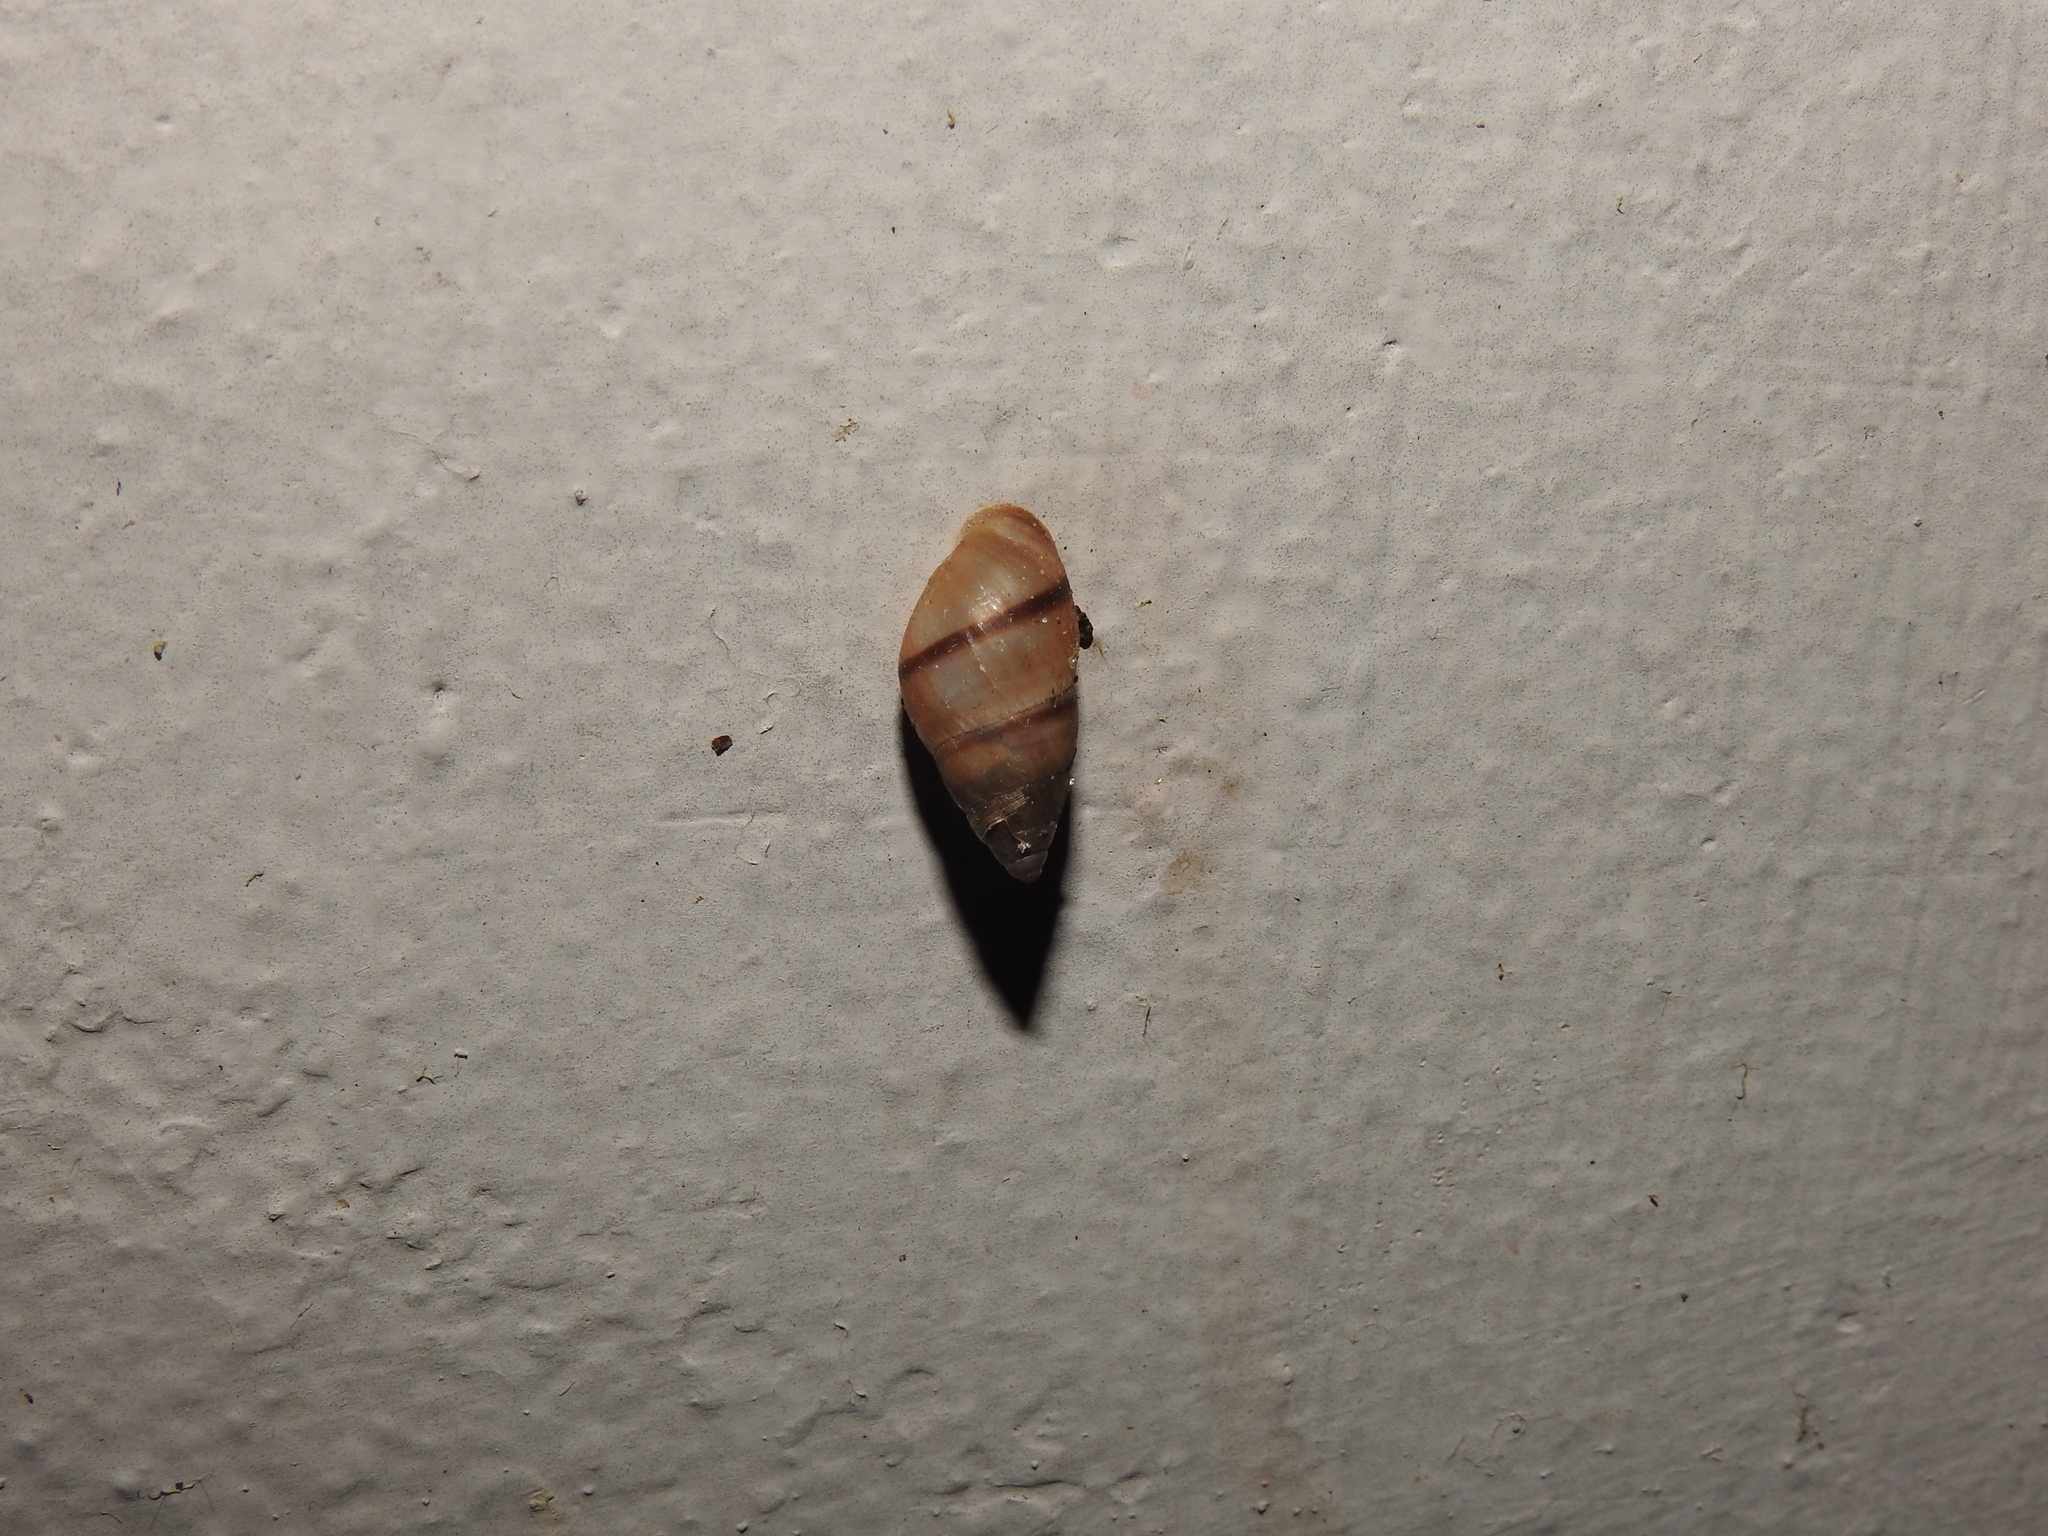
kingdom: Animalia
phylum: Mollusca
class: Gastropoda
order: Stylommatophora
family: Bulimulidae
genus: Bulimulus
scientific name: Bulimulus guadalupensis
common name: West indian bulimulus
